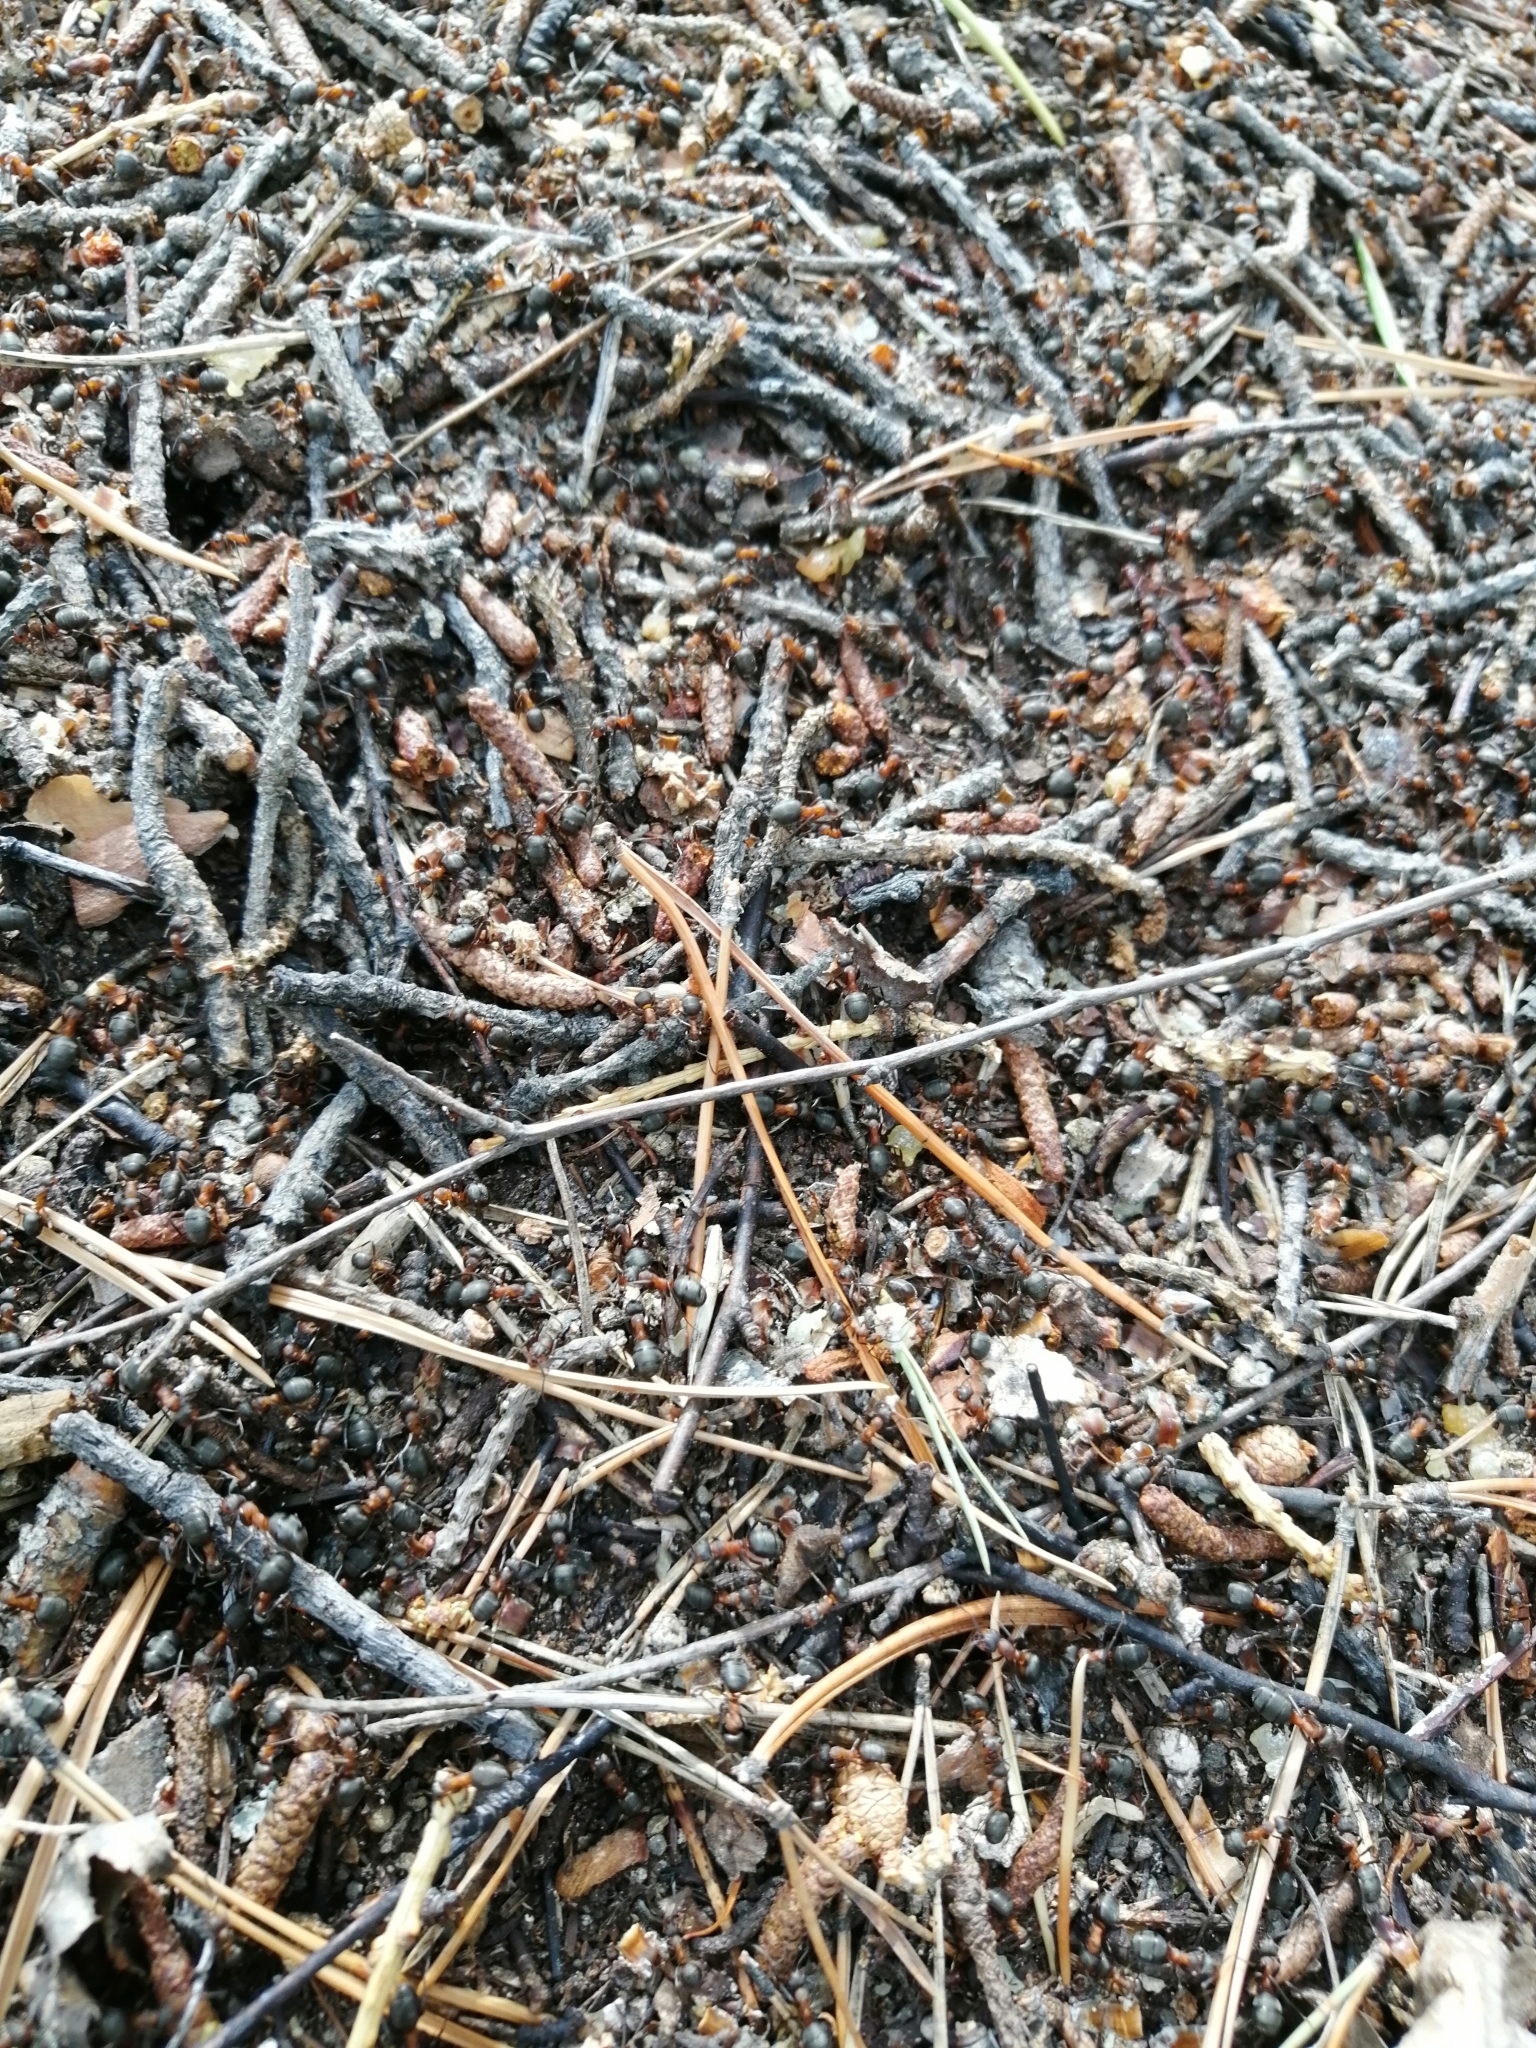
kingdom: Animalia
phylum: Arthropoda
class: Insecta
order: Hymenoptera
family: Formicidae
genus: Formica
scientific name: Formica
